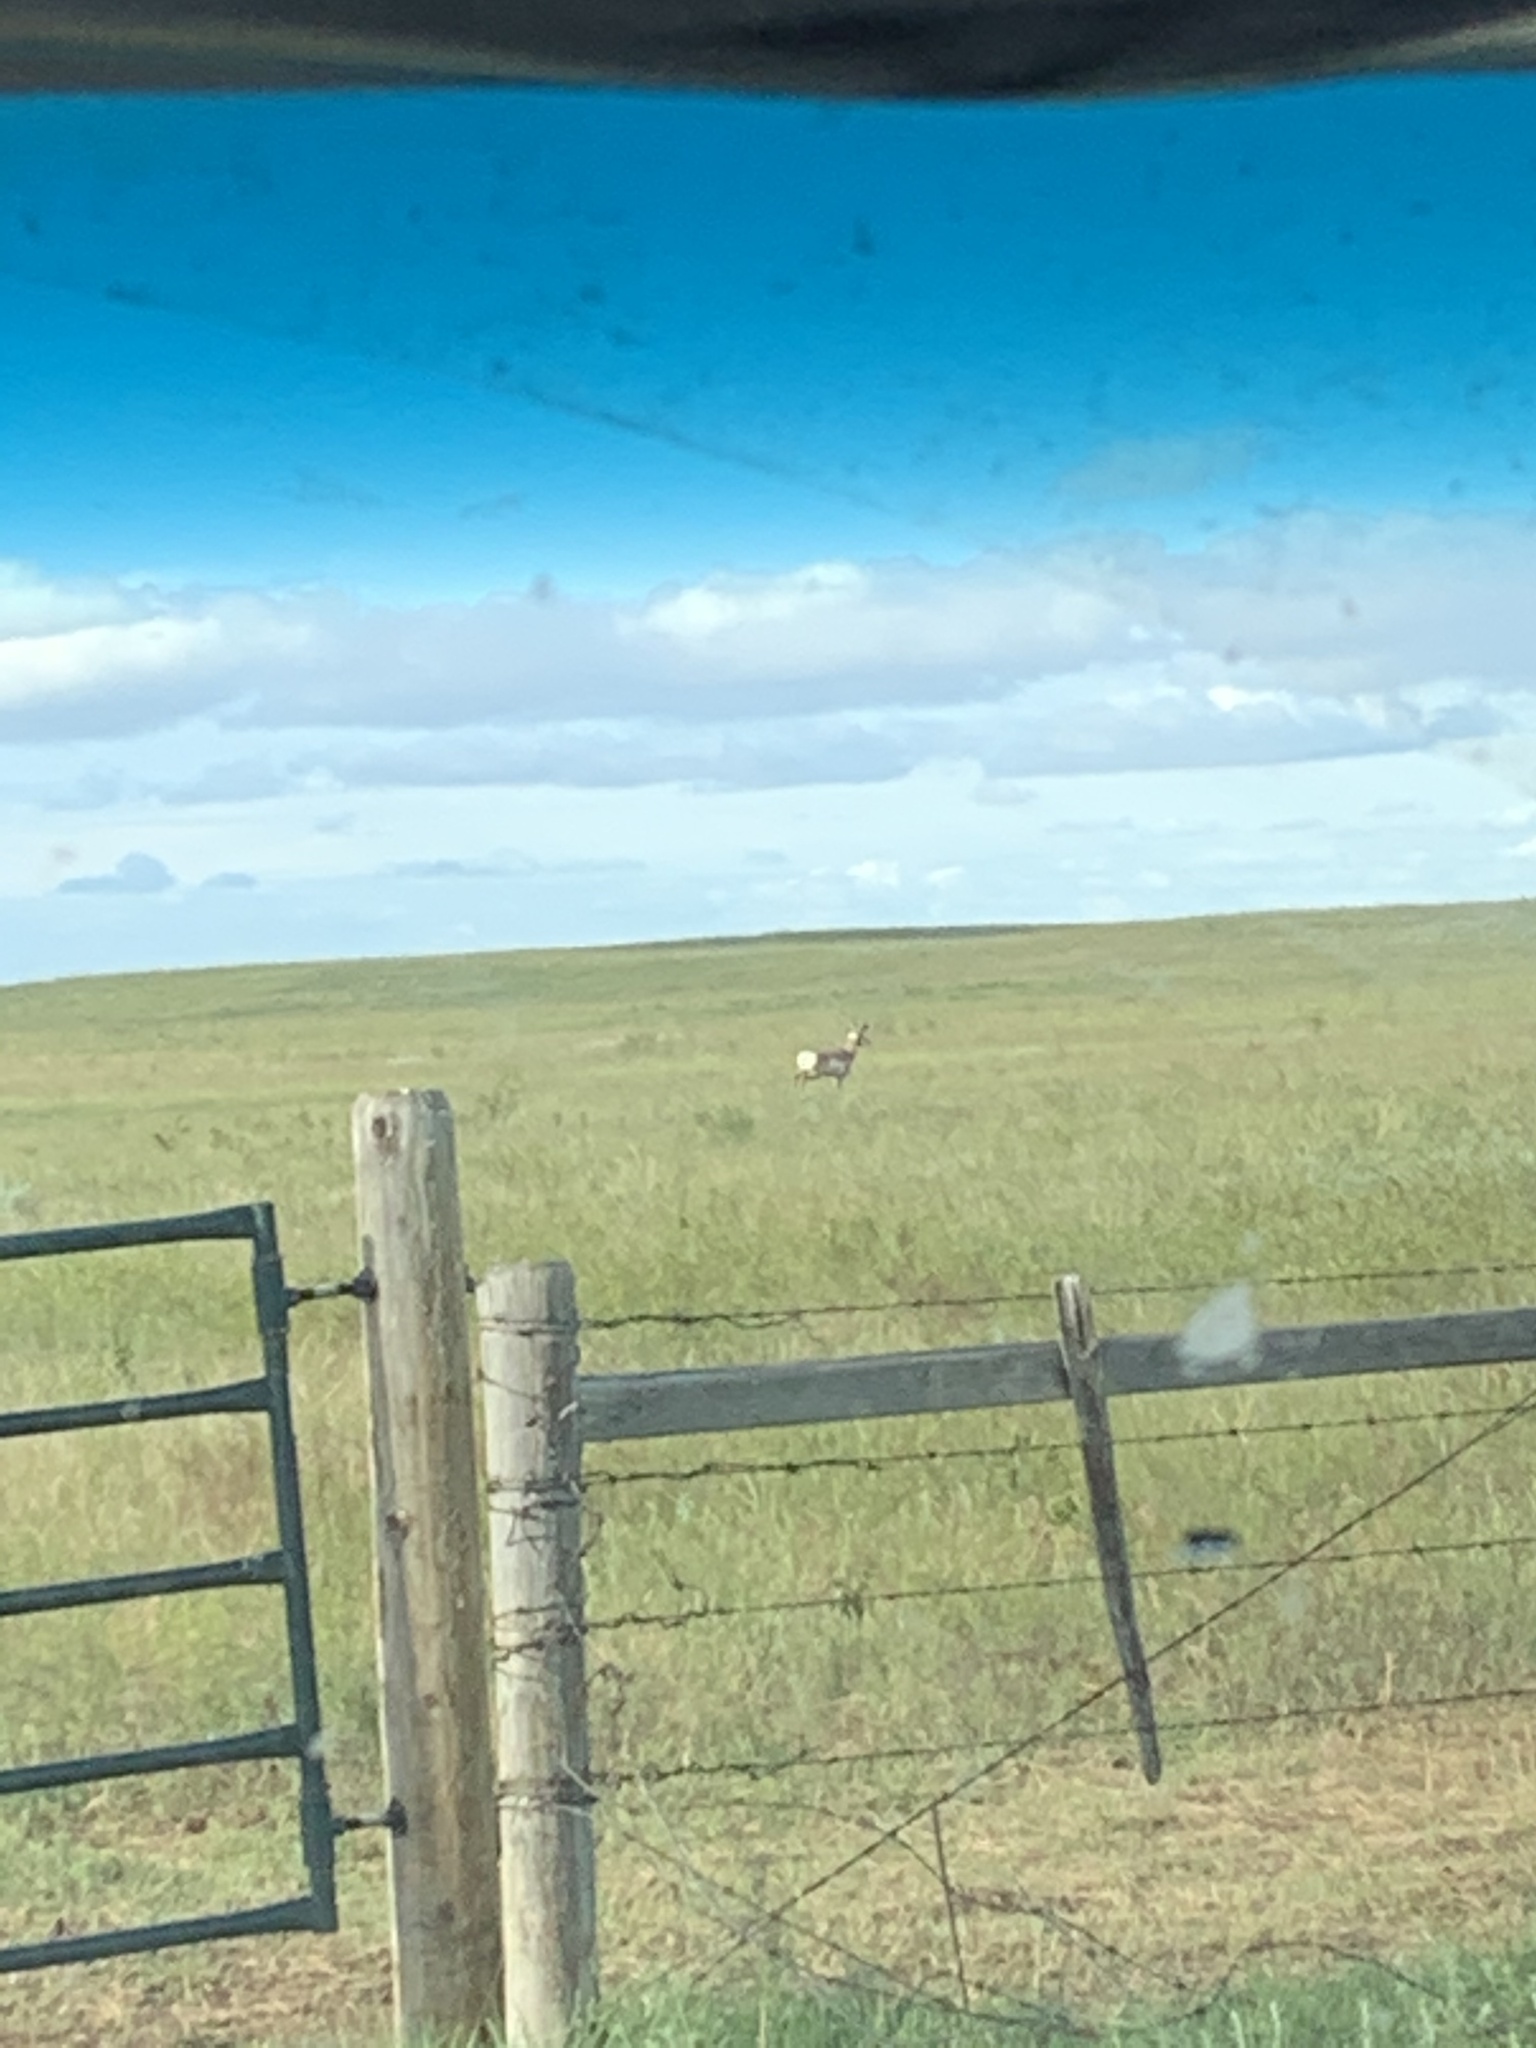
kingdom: Animalia
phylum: Chordata
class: Mammalia
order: Artiodactyla
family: Antilocapridae
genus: Antilocapra
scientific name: Antilocapra americana
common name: Pronghorn
